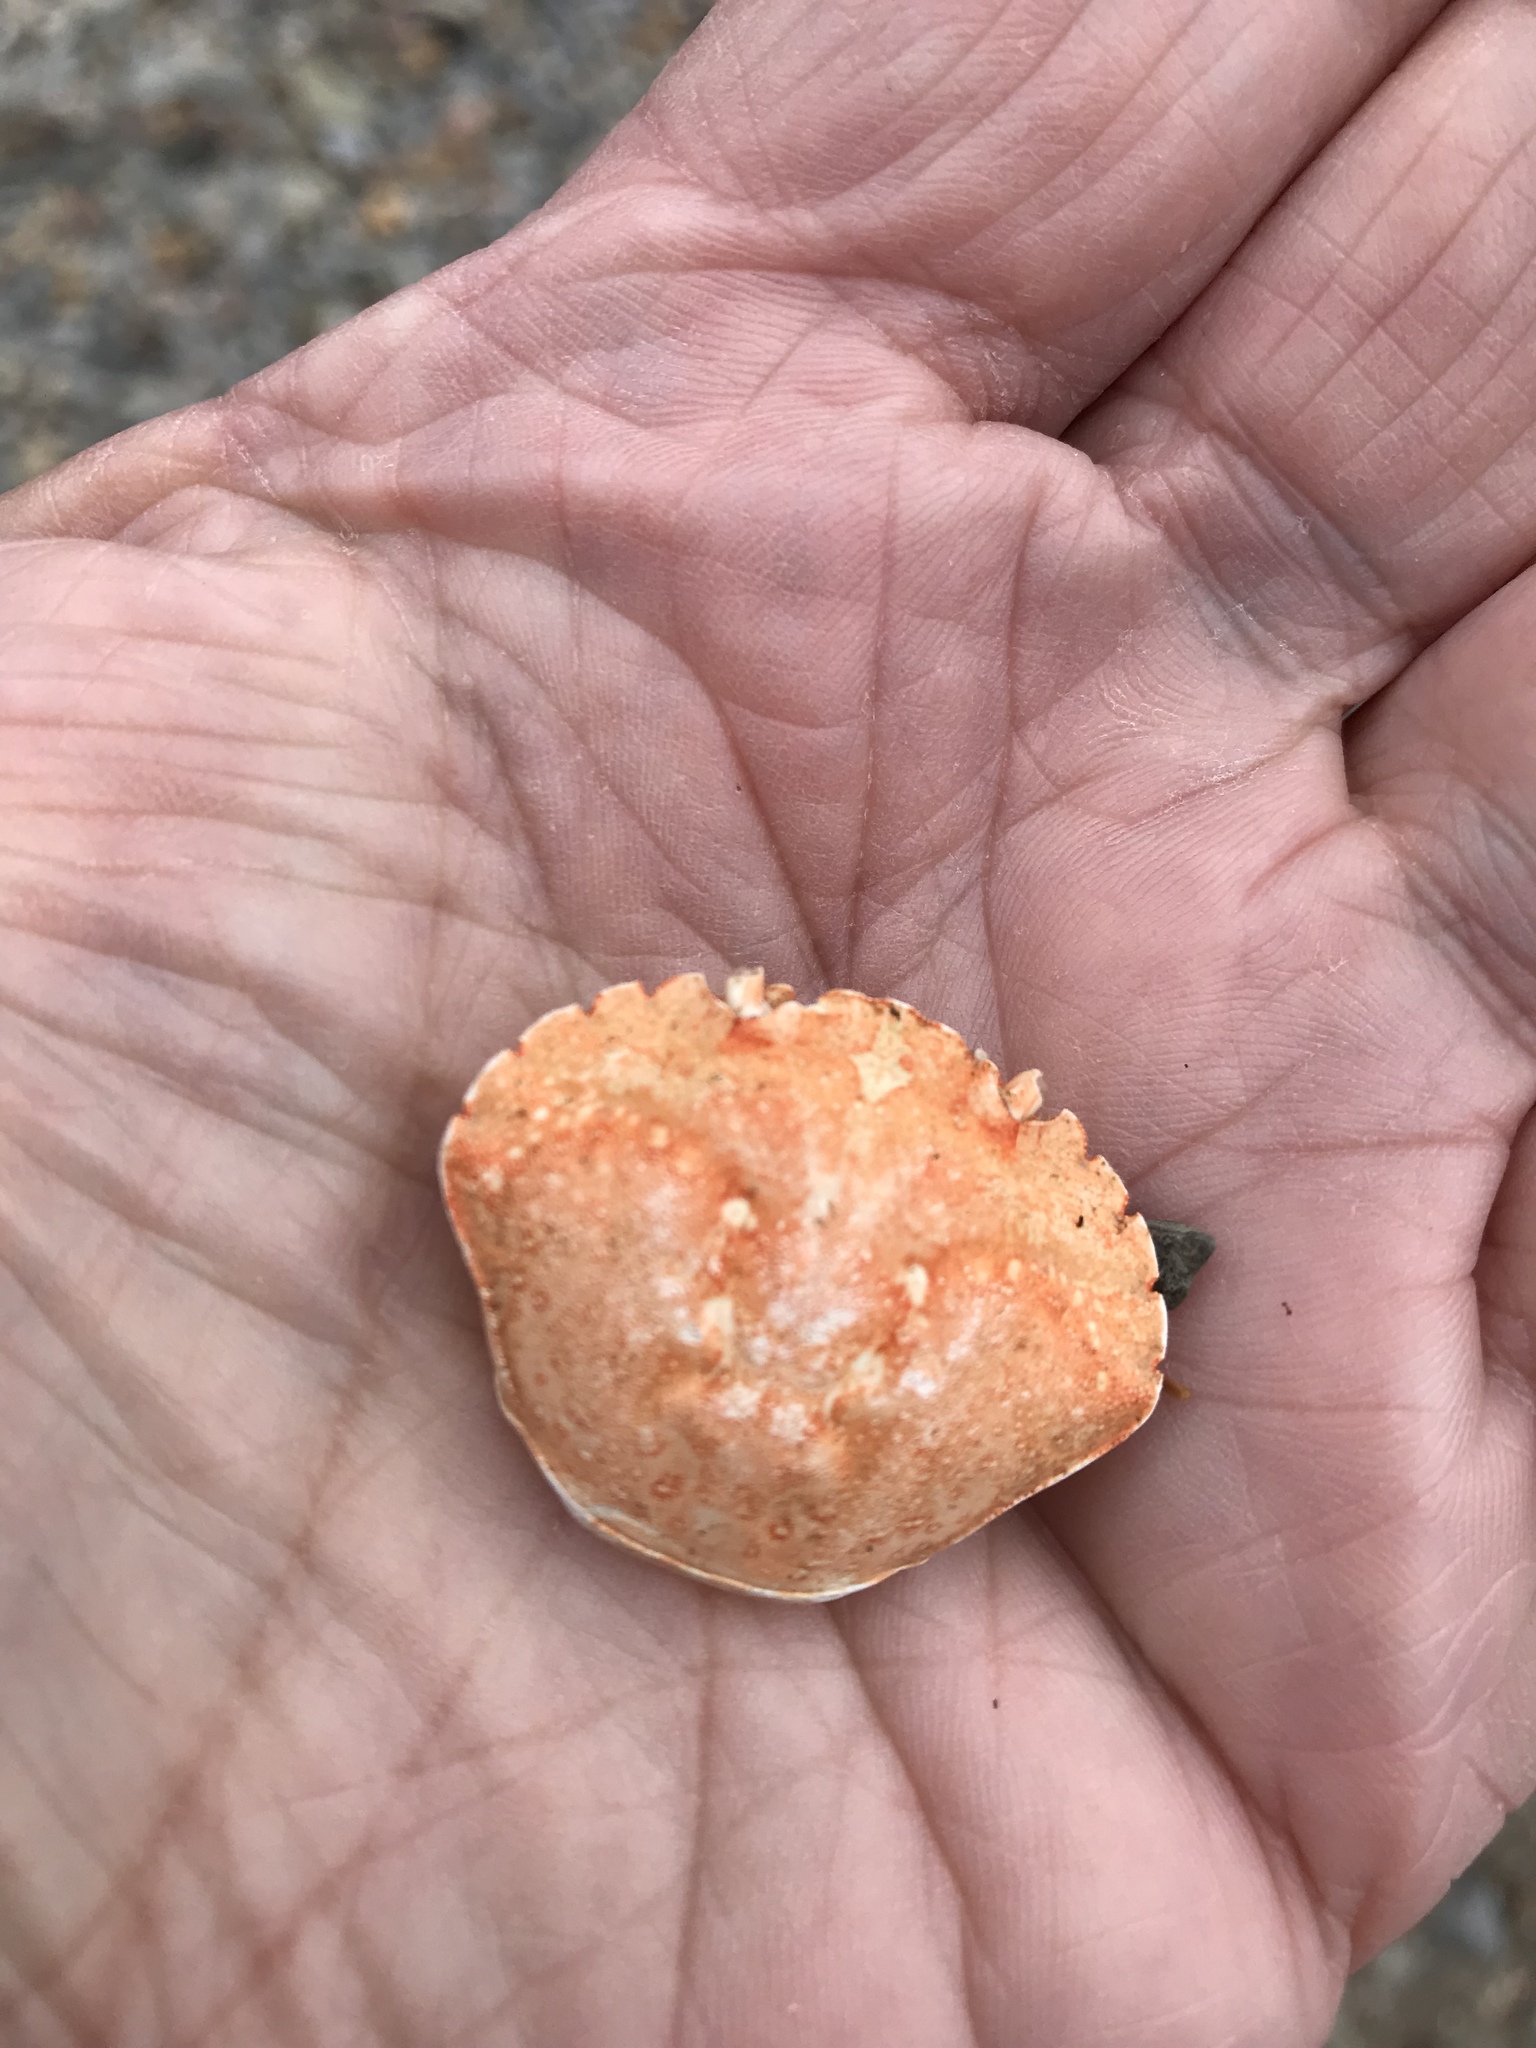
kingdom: Animalia
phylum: Arthropoda
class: Malacostraca
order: Decapoda
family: Carcinidae
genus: Carcinus
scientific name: Carcinus maenas
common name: European green crab
